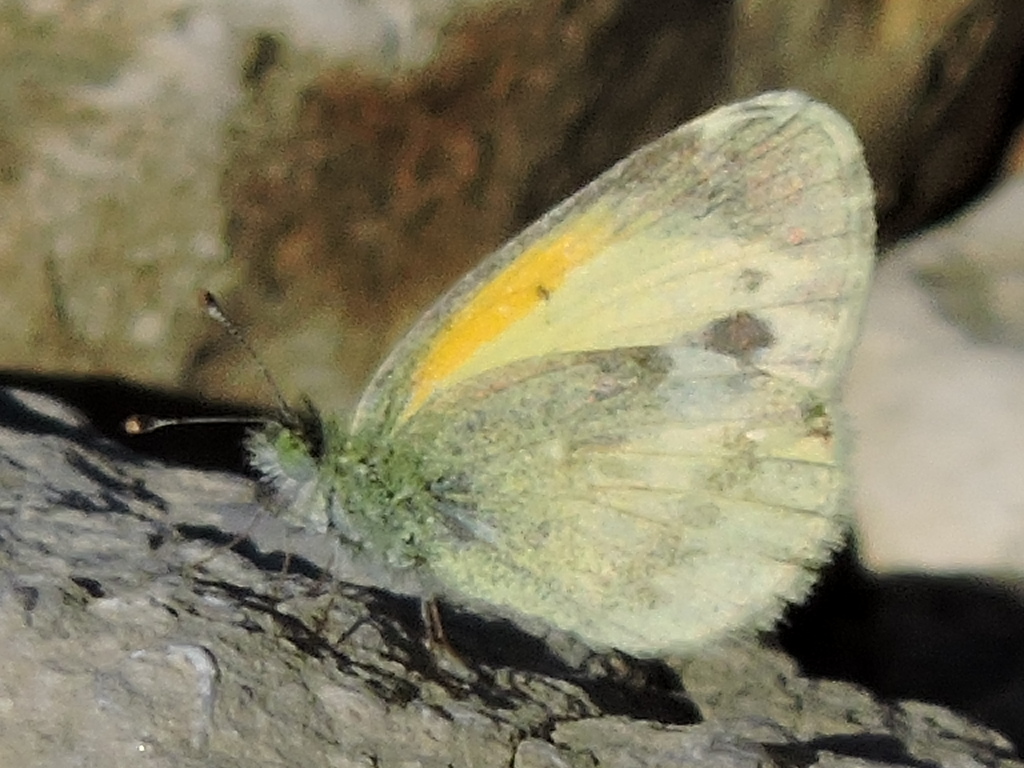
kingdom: Animalia
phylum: Arthropoda
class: Insecta
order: Lepidoptera
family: Pieridae
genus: Nathalis
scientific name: Nathalis iole
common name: Dainty sulphur
